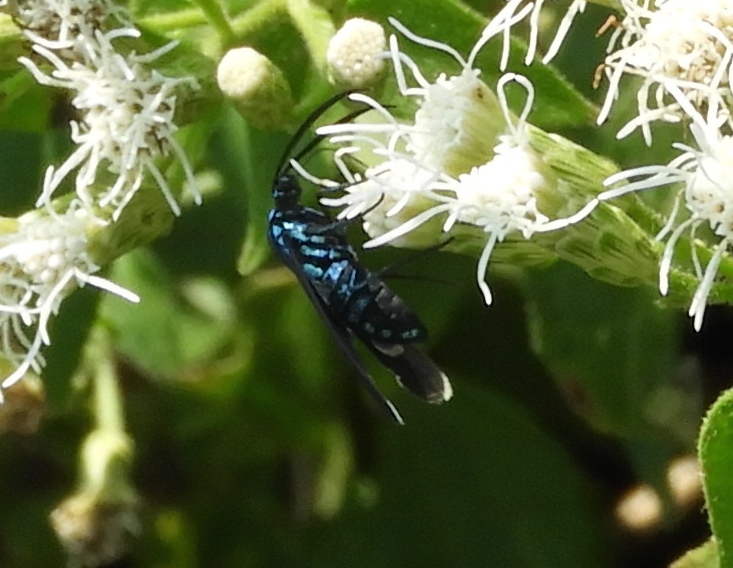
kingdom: Animalia
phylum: Arthropoda
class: Insecta
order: Lepidoptera
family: Erebidae
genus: Uranophora
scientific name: Uranophora leucotela
